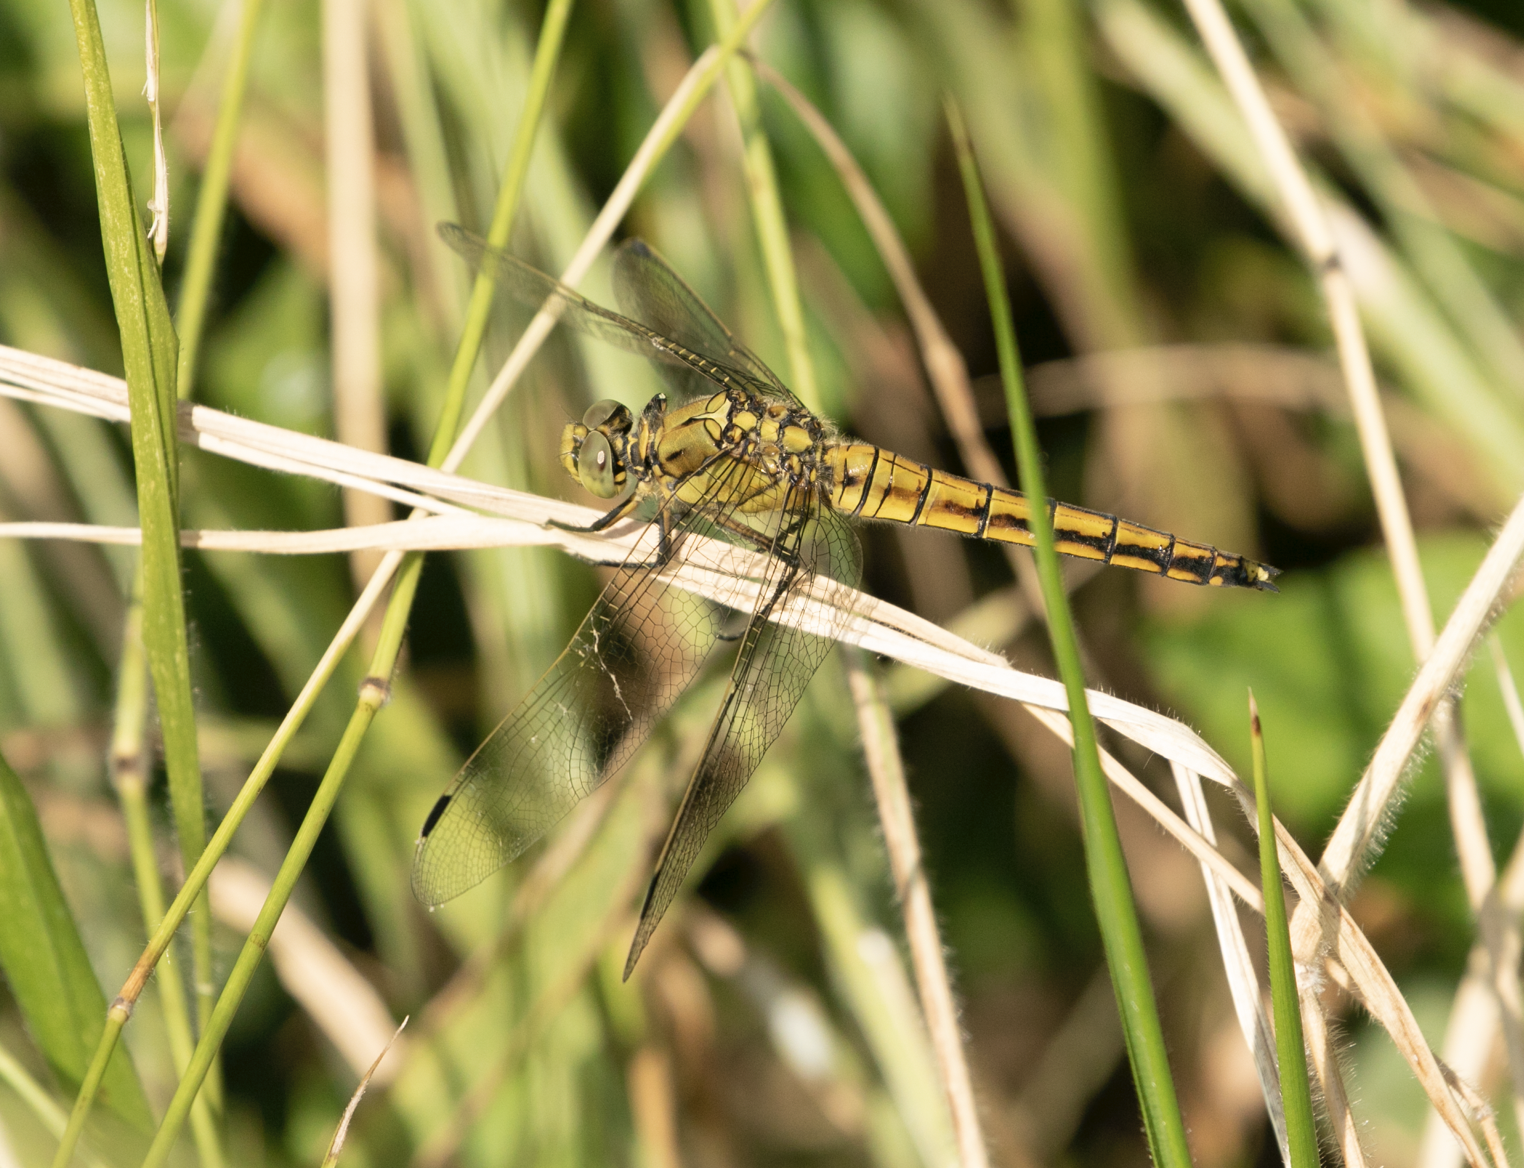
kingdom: Animalia
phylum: Arthropoda
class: Insecta
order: Odonata
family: Libellulidae
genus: Orthetrum
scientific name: Orthetrum cancellatum
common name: Black-tailed skimmer
